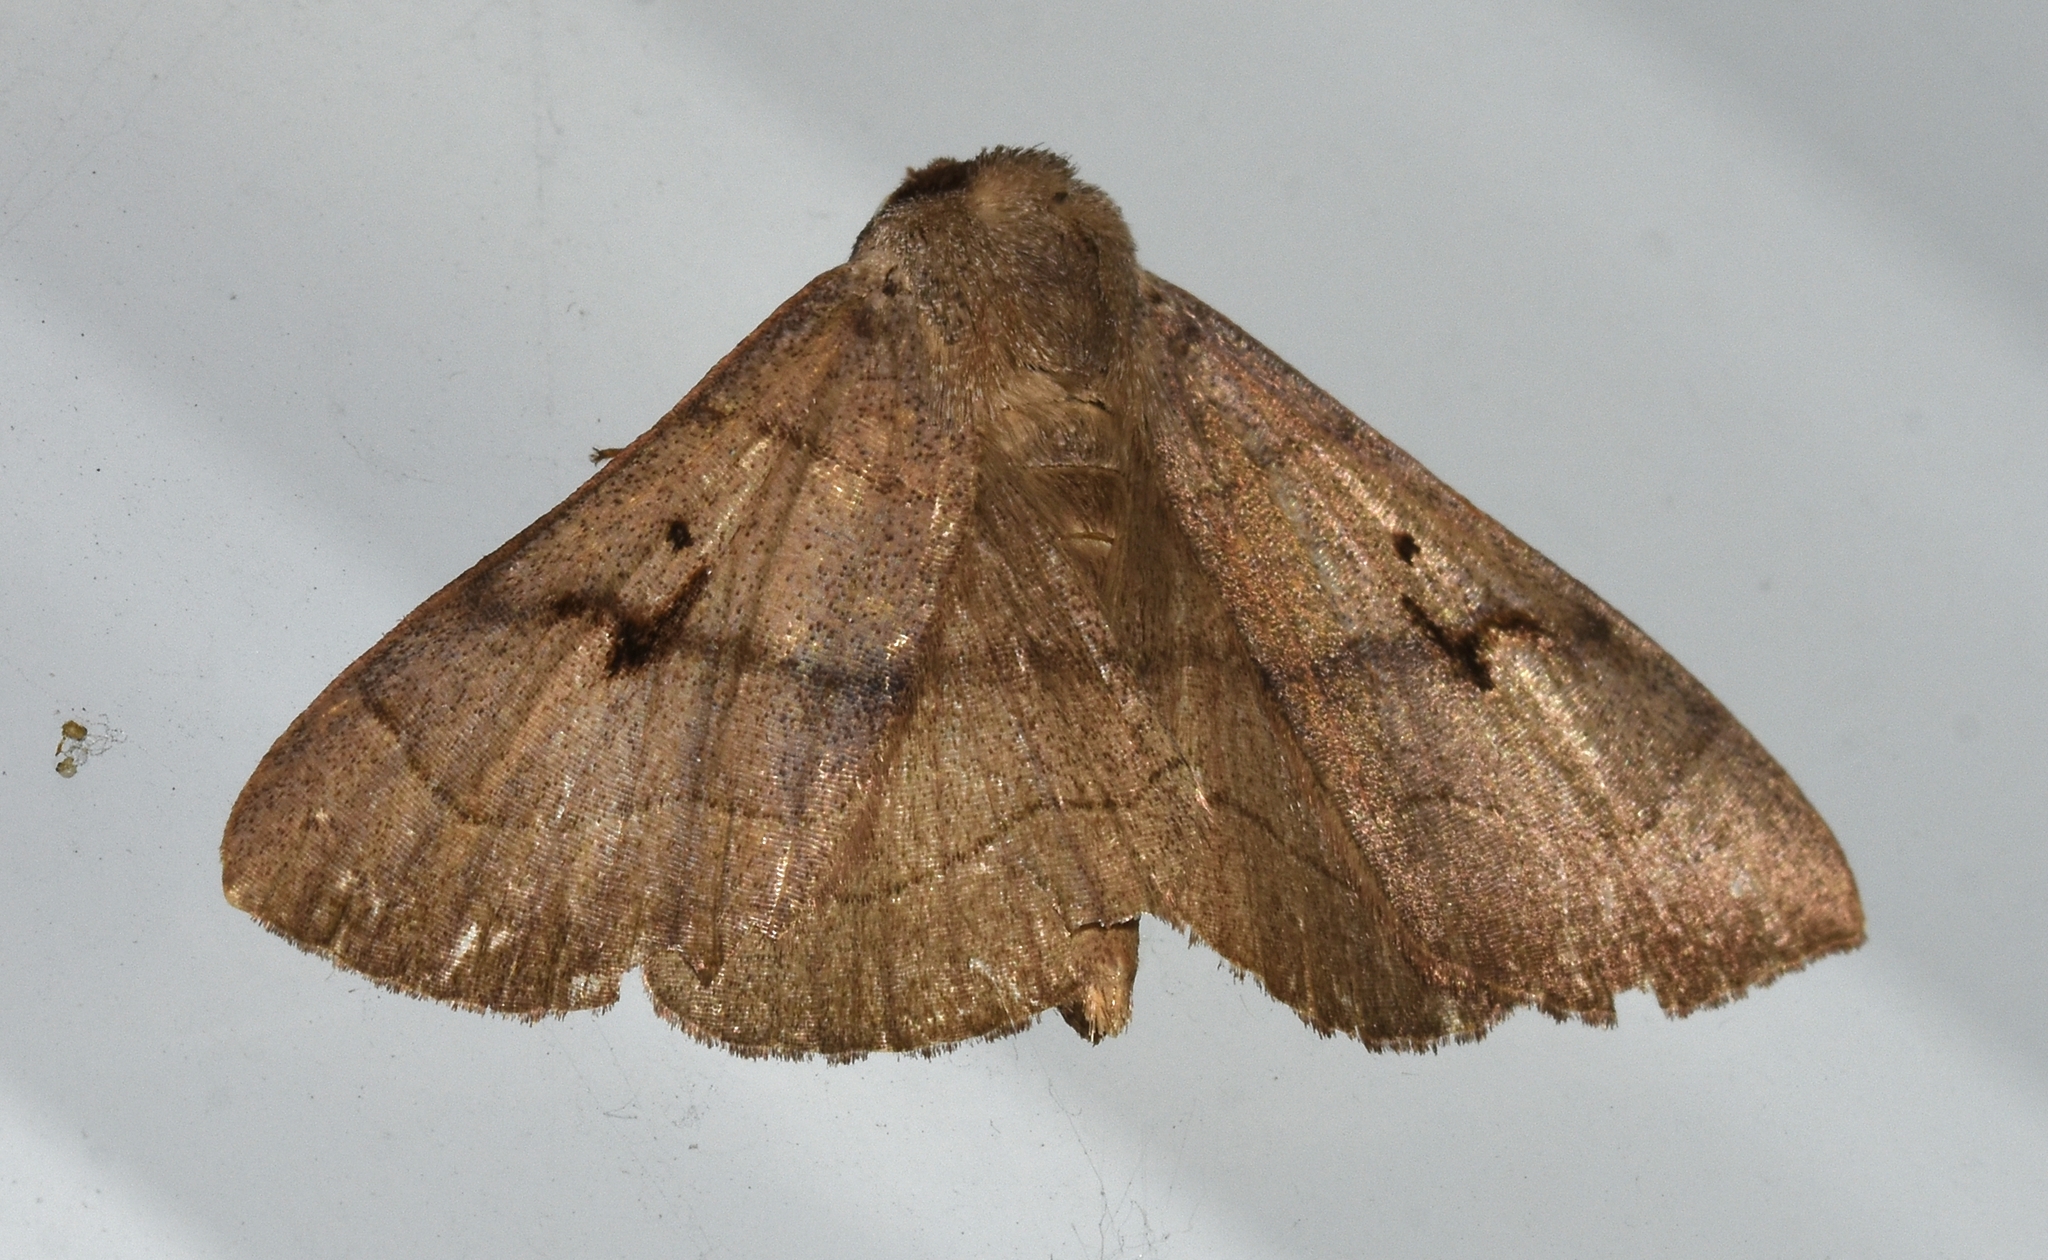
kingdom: Animalia
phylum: Arthropoda
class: Insecta
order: Lepidoptera
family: Erebidae
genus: Panopoda
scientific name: Panopoda carneicosta
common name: Brown panopoda moth
